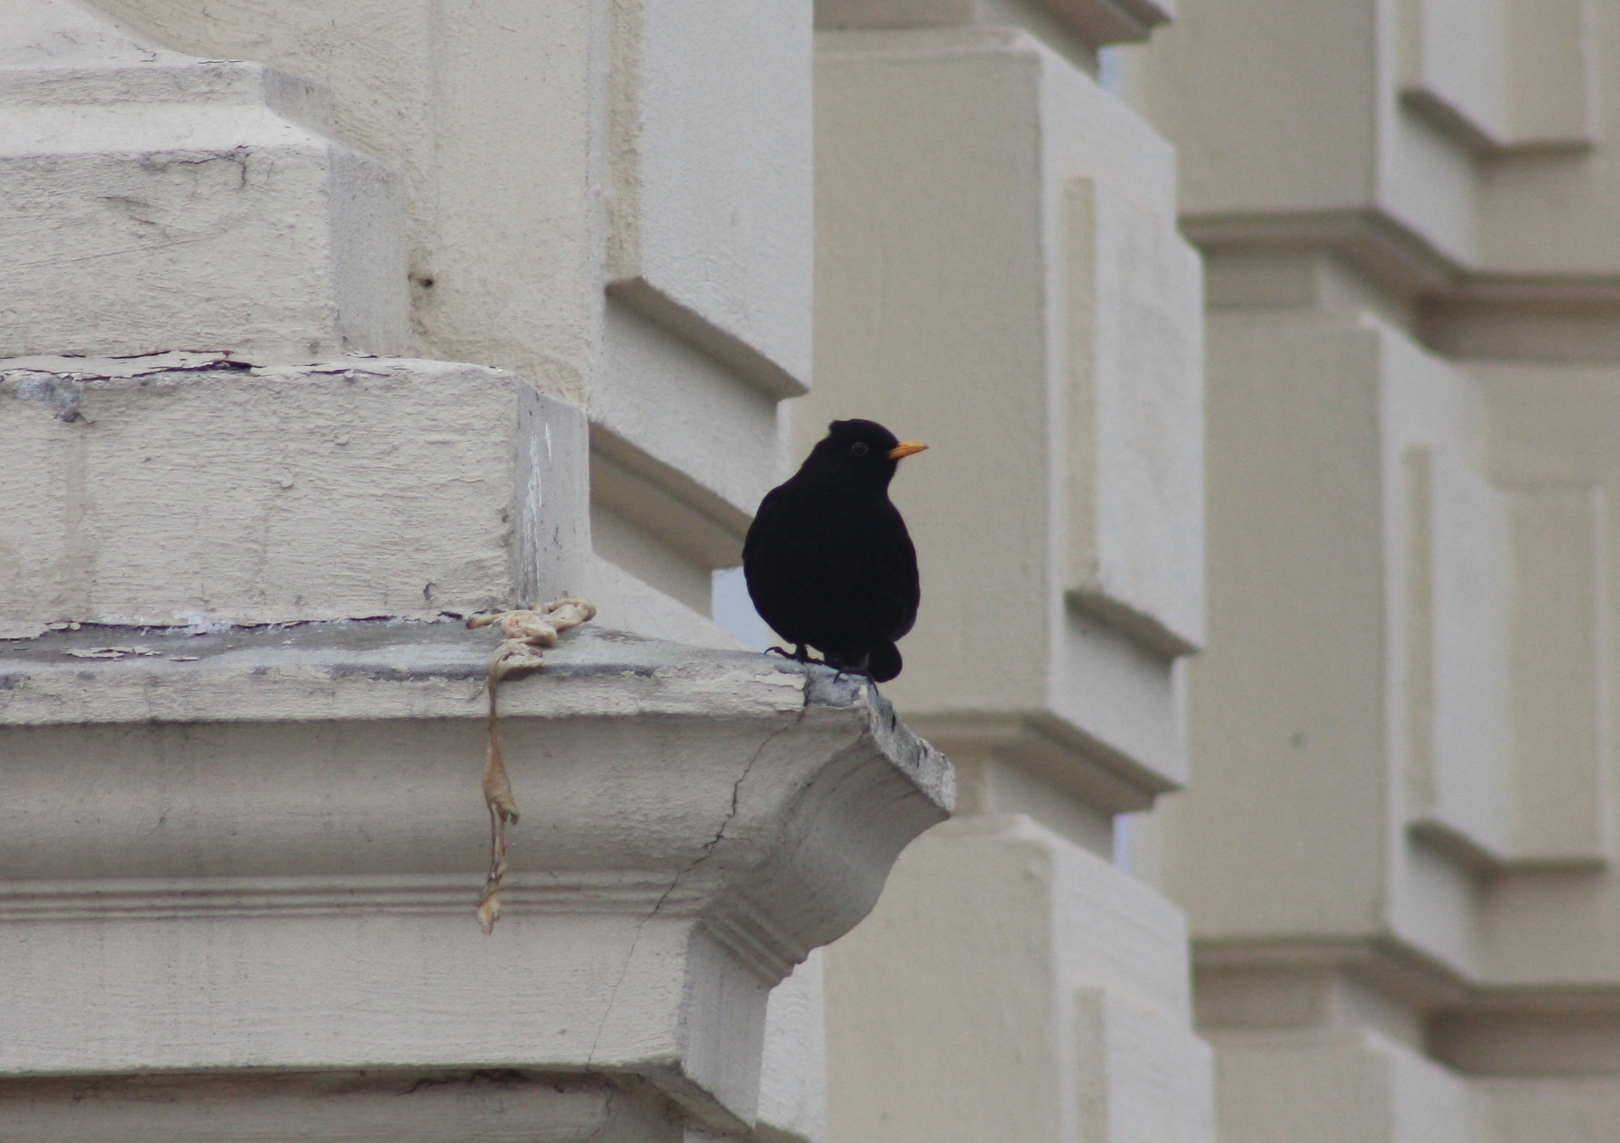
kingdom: Animalia
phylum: Chordata
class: Aves
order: Passeriformes
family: Turdidae
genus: Turdus
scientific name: Turdus merula
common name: Common blackbird
